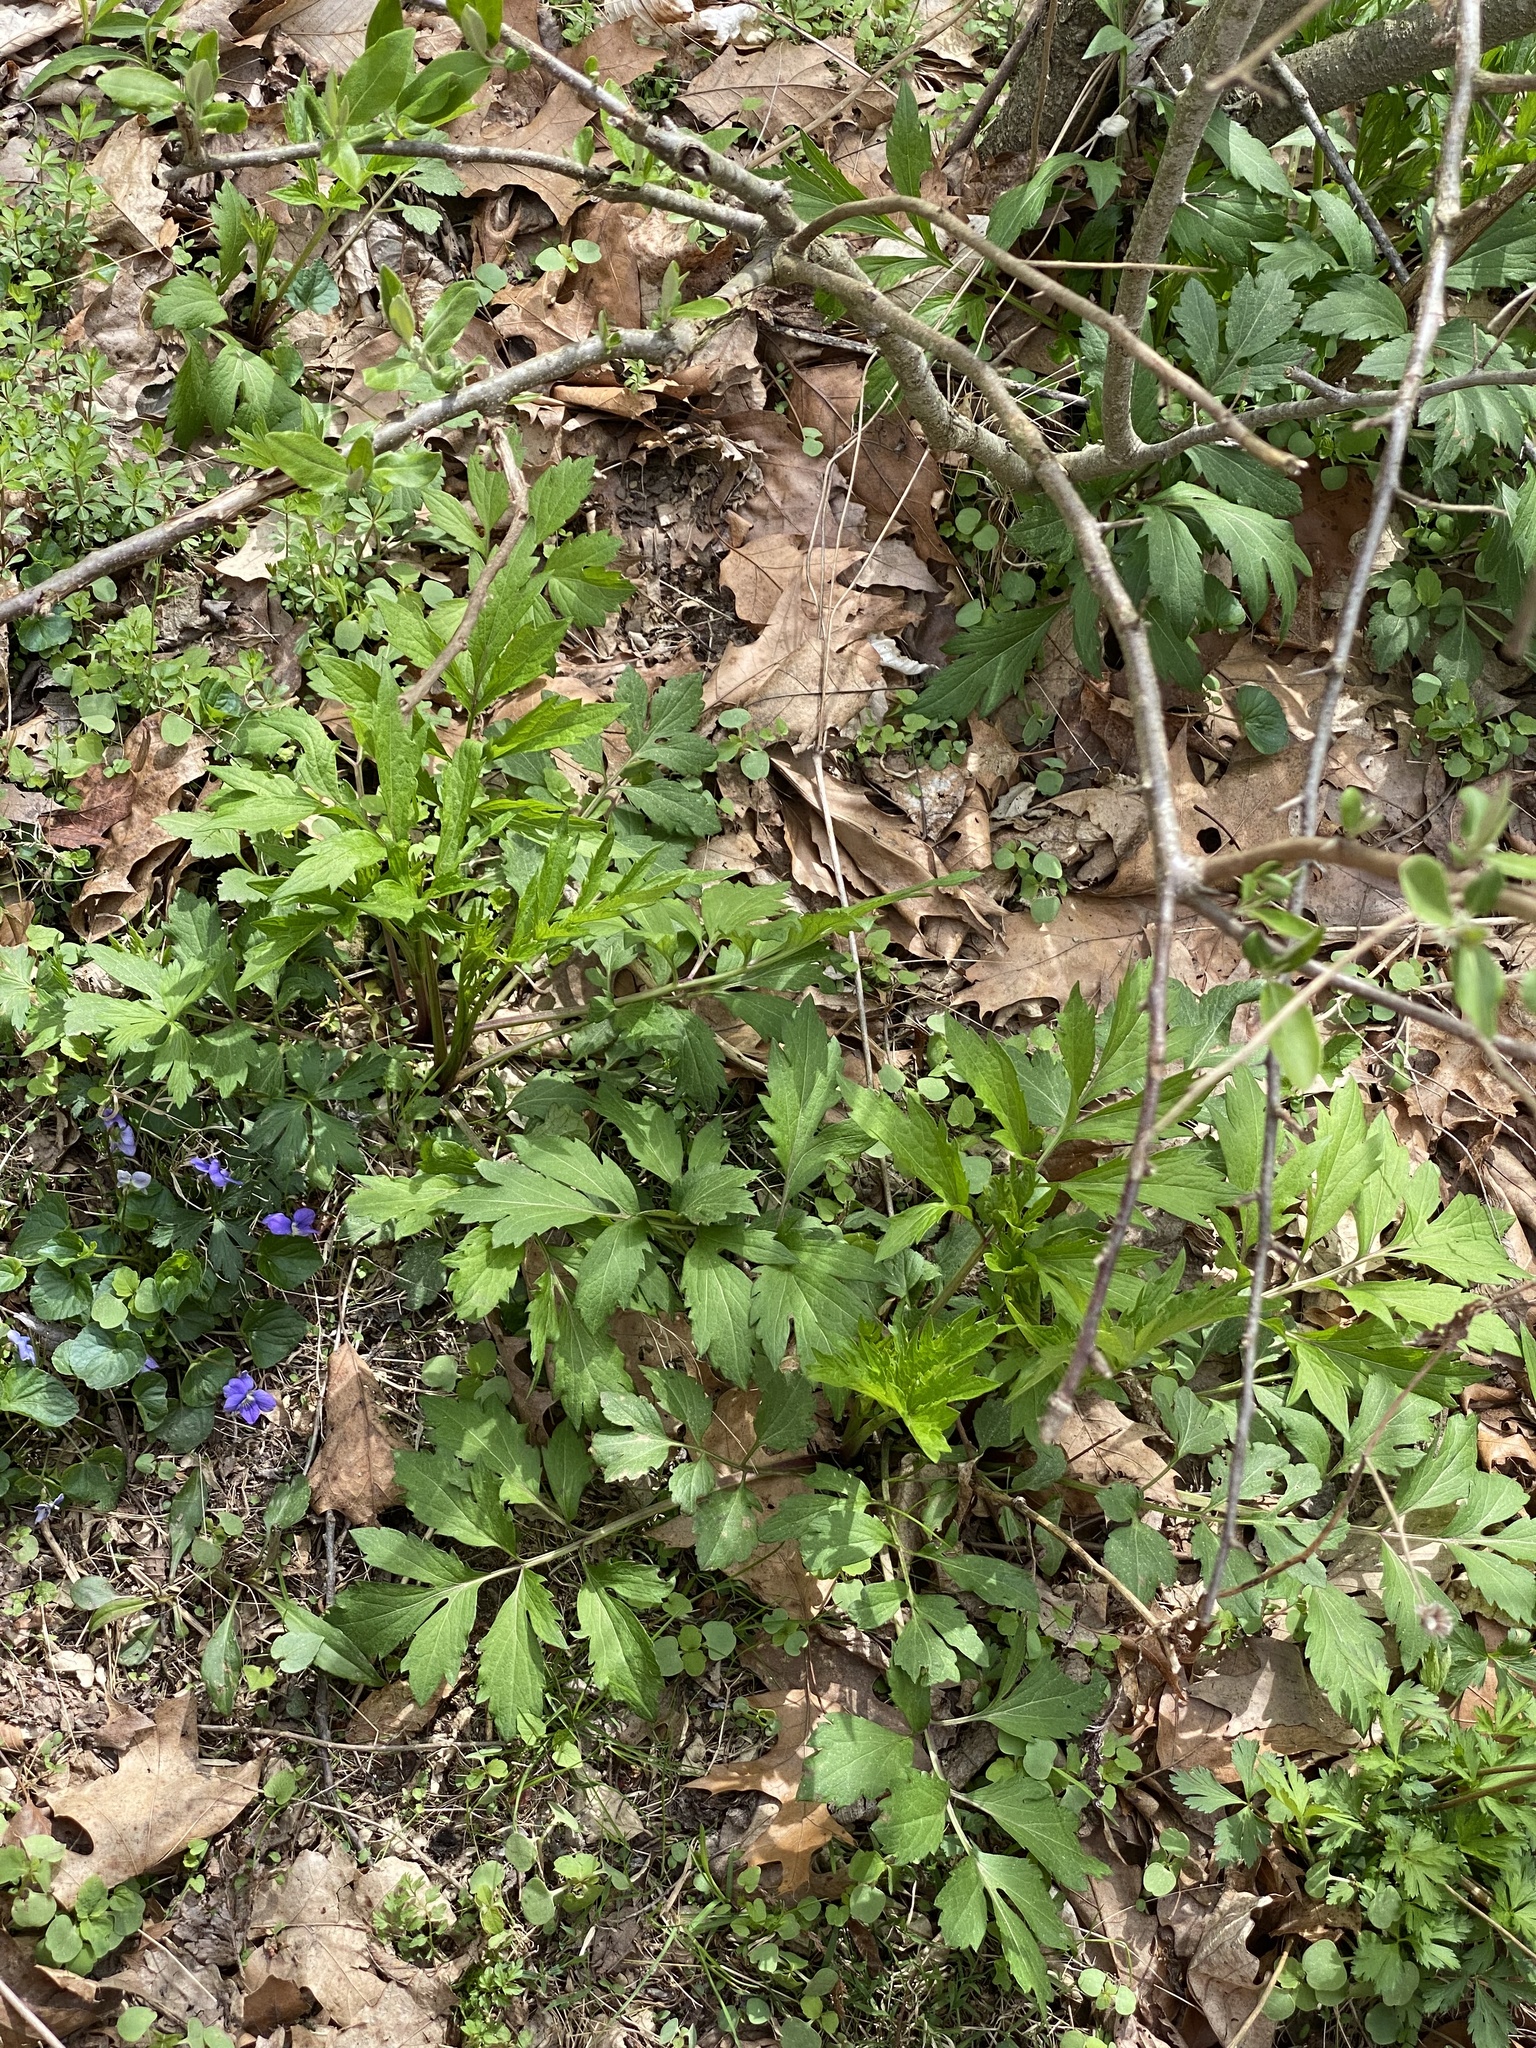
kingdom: Plantae
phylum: Tracheophyta
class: Magnoliopsida
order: Asterales
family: Asteraceae
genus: Rudbeckia
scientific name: Rudbeckia laciniata
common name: Coneflower
